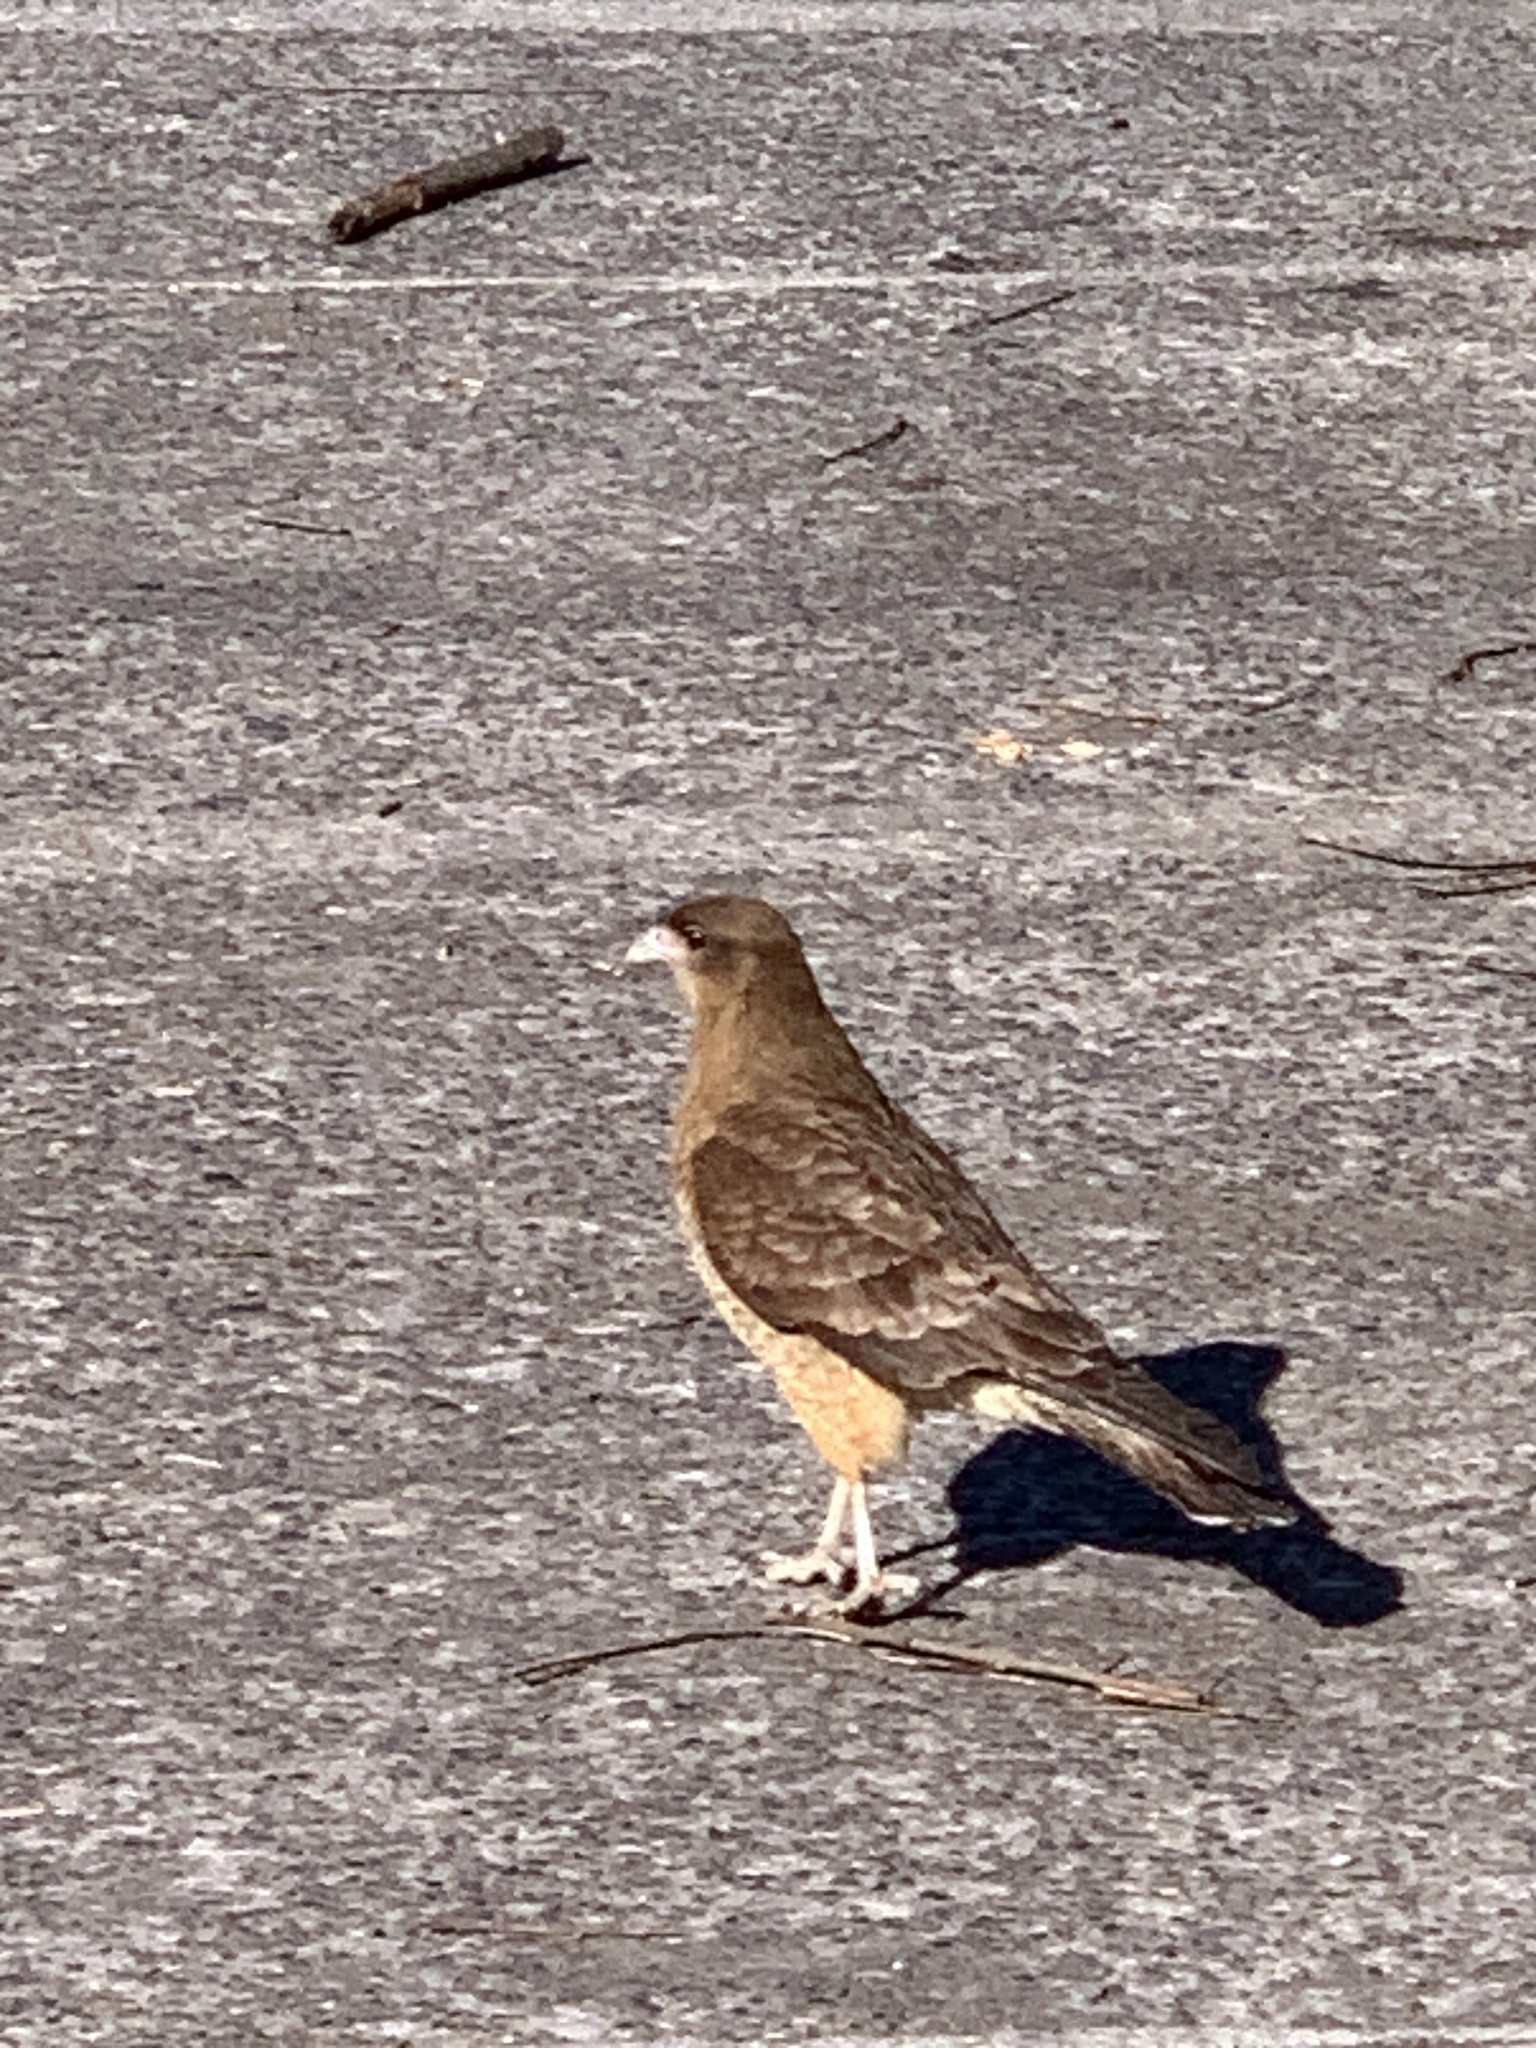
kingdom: Animalia
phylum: Chordata
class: Aves
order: Falconiformes
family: Falconidae
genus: Daptrius
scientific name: Daptrius
